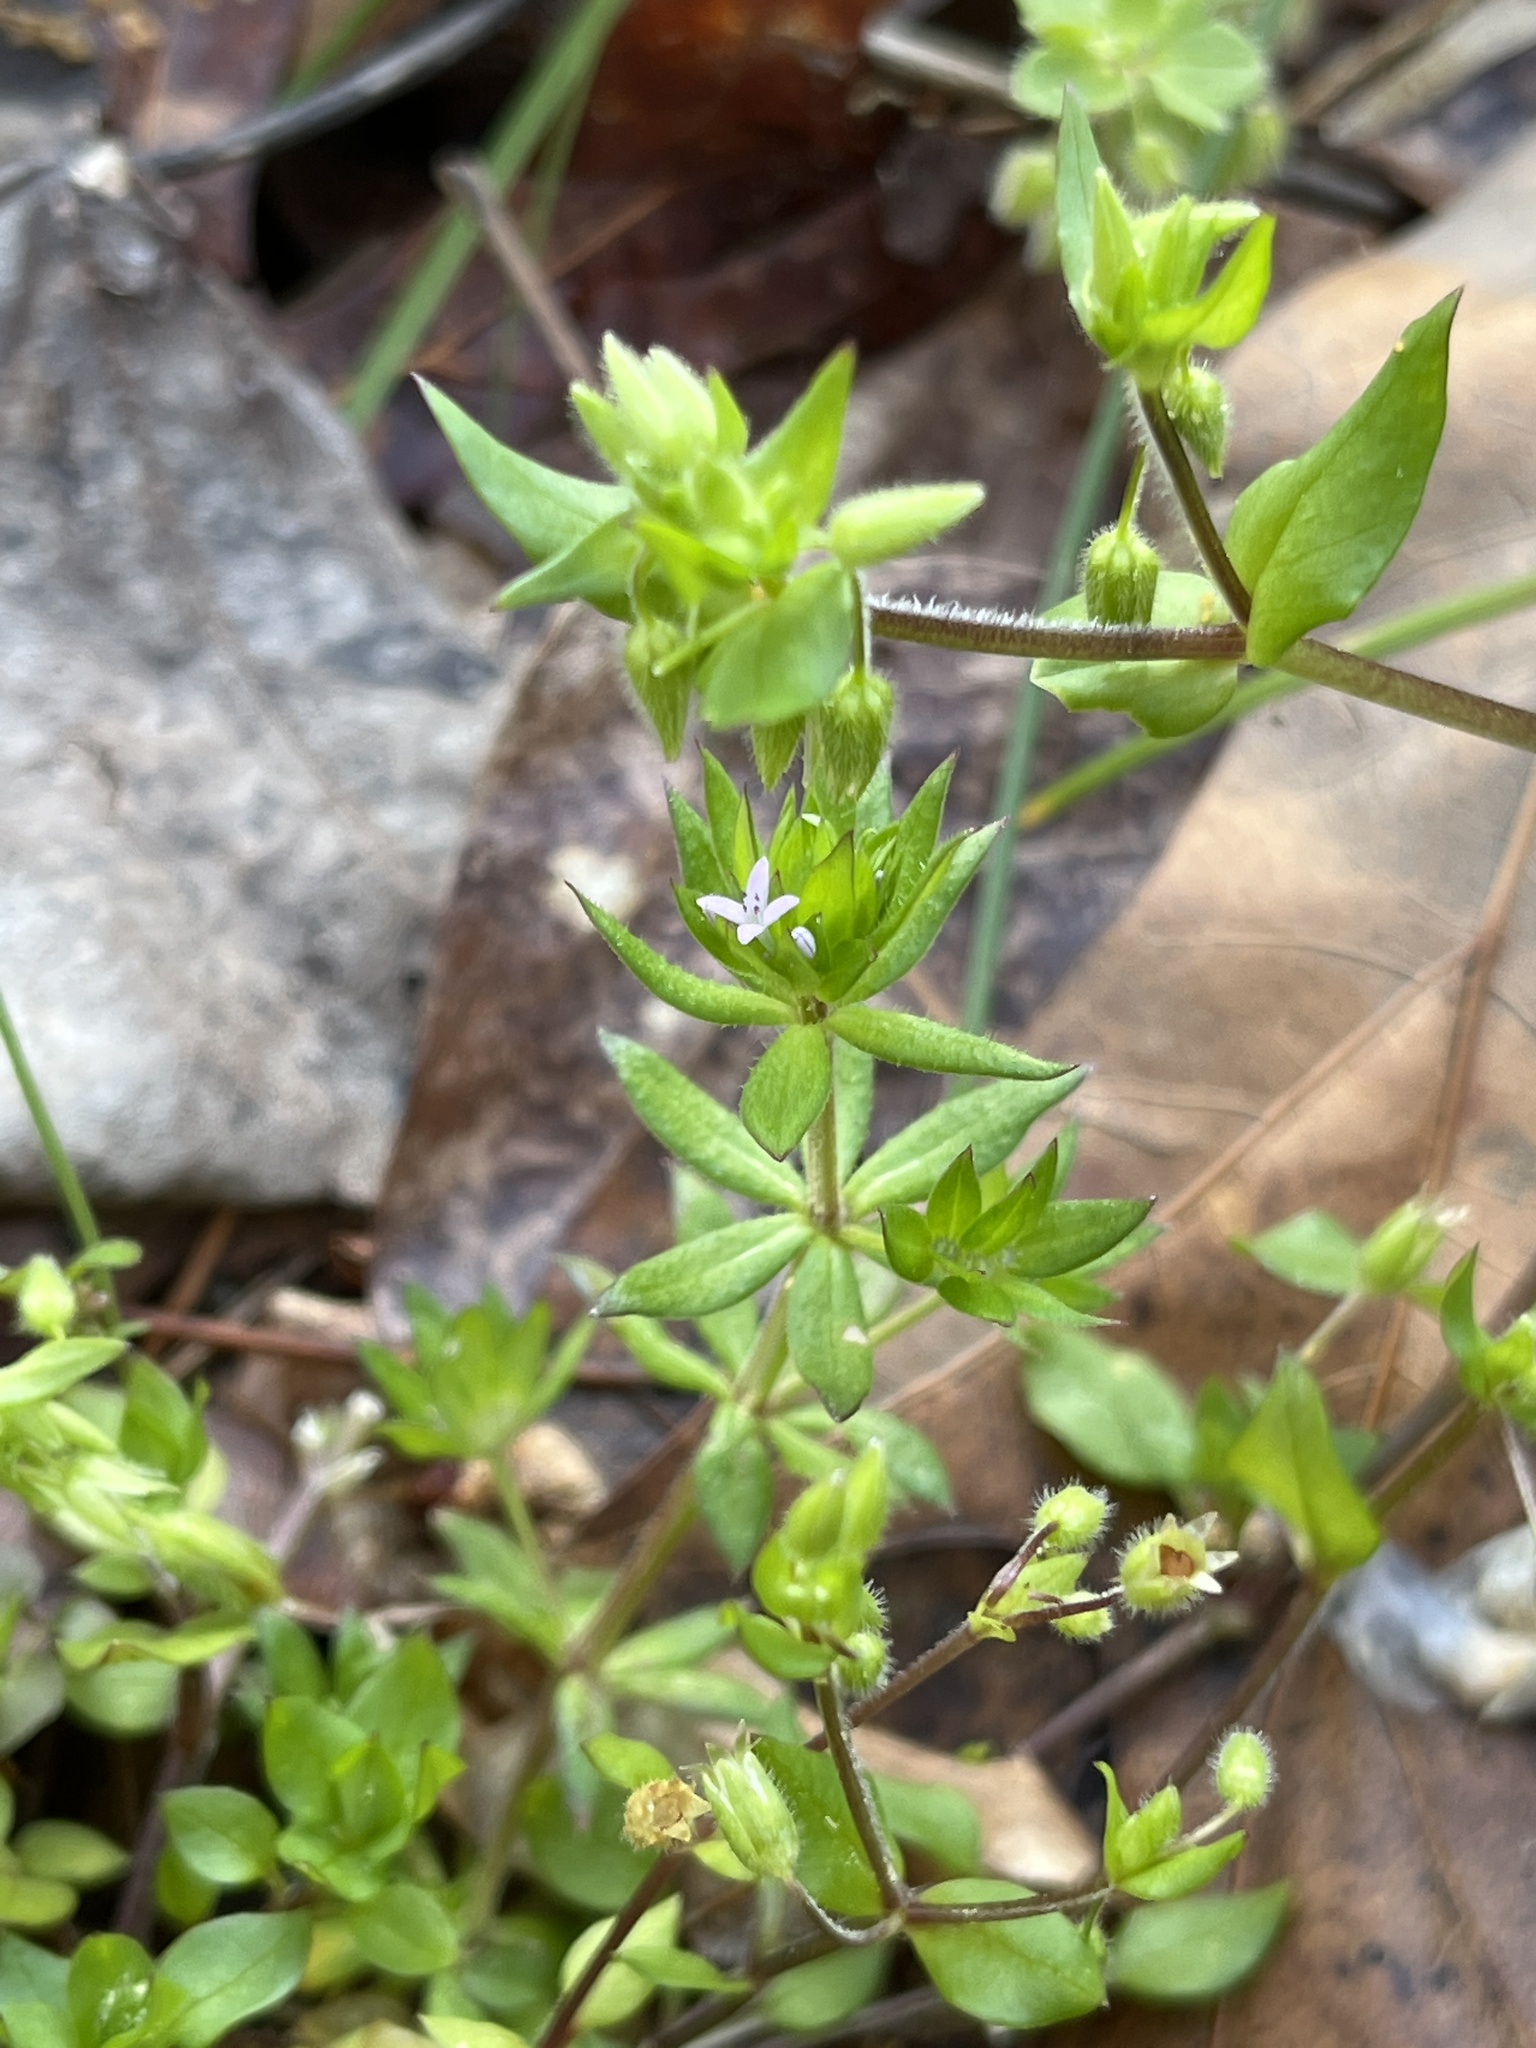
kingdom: Plantae
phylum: Tracheophyta
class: Magnoliopsida
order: Gentianales
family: Rubiaceae
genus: Sherardia
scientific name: Sherardia arvensis
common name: Field madder
